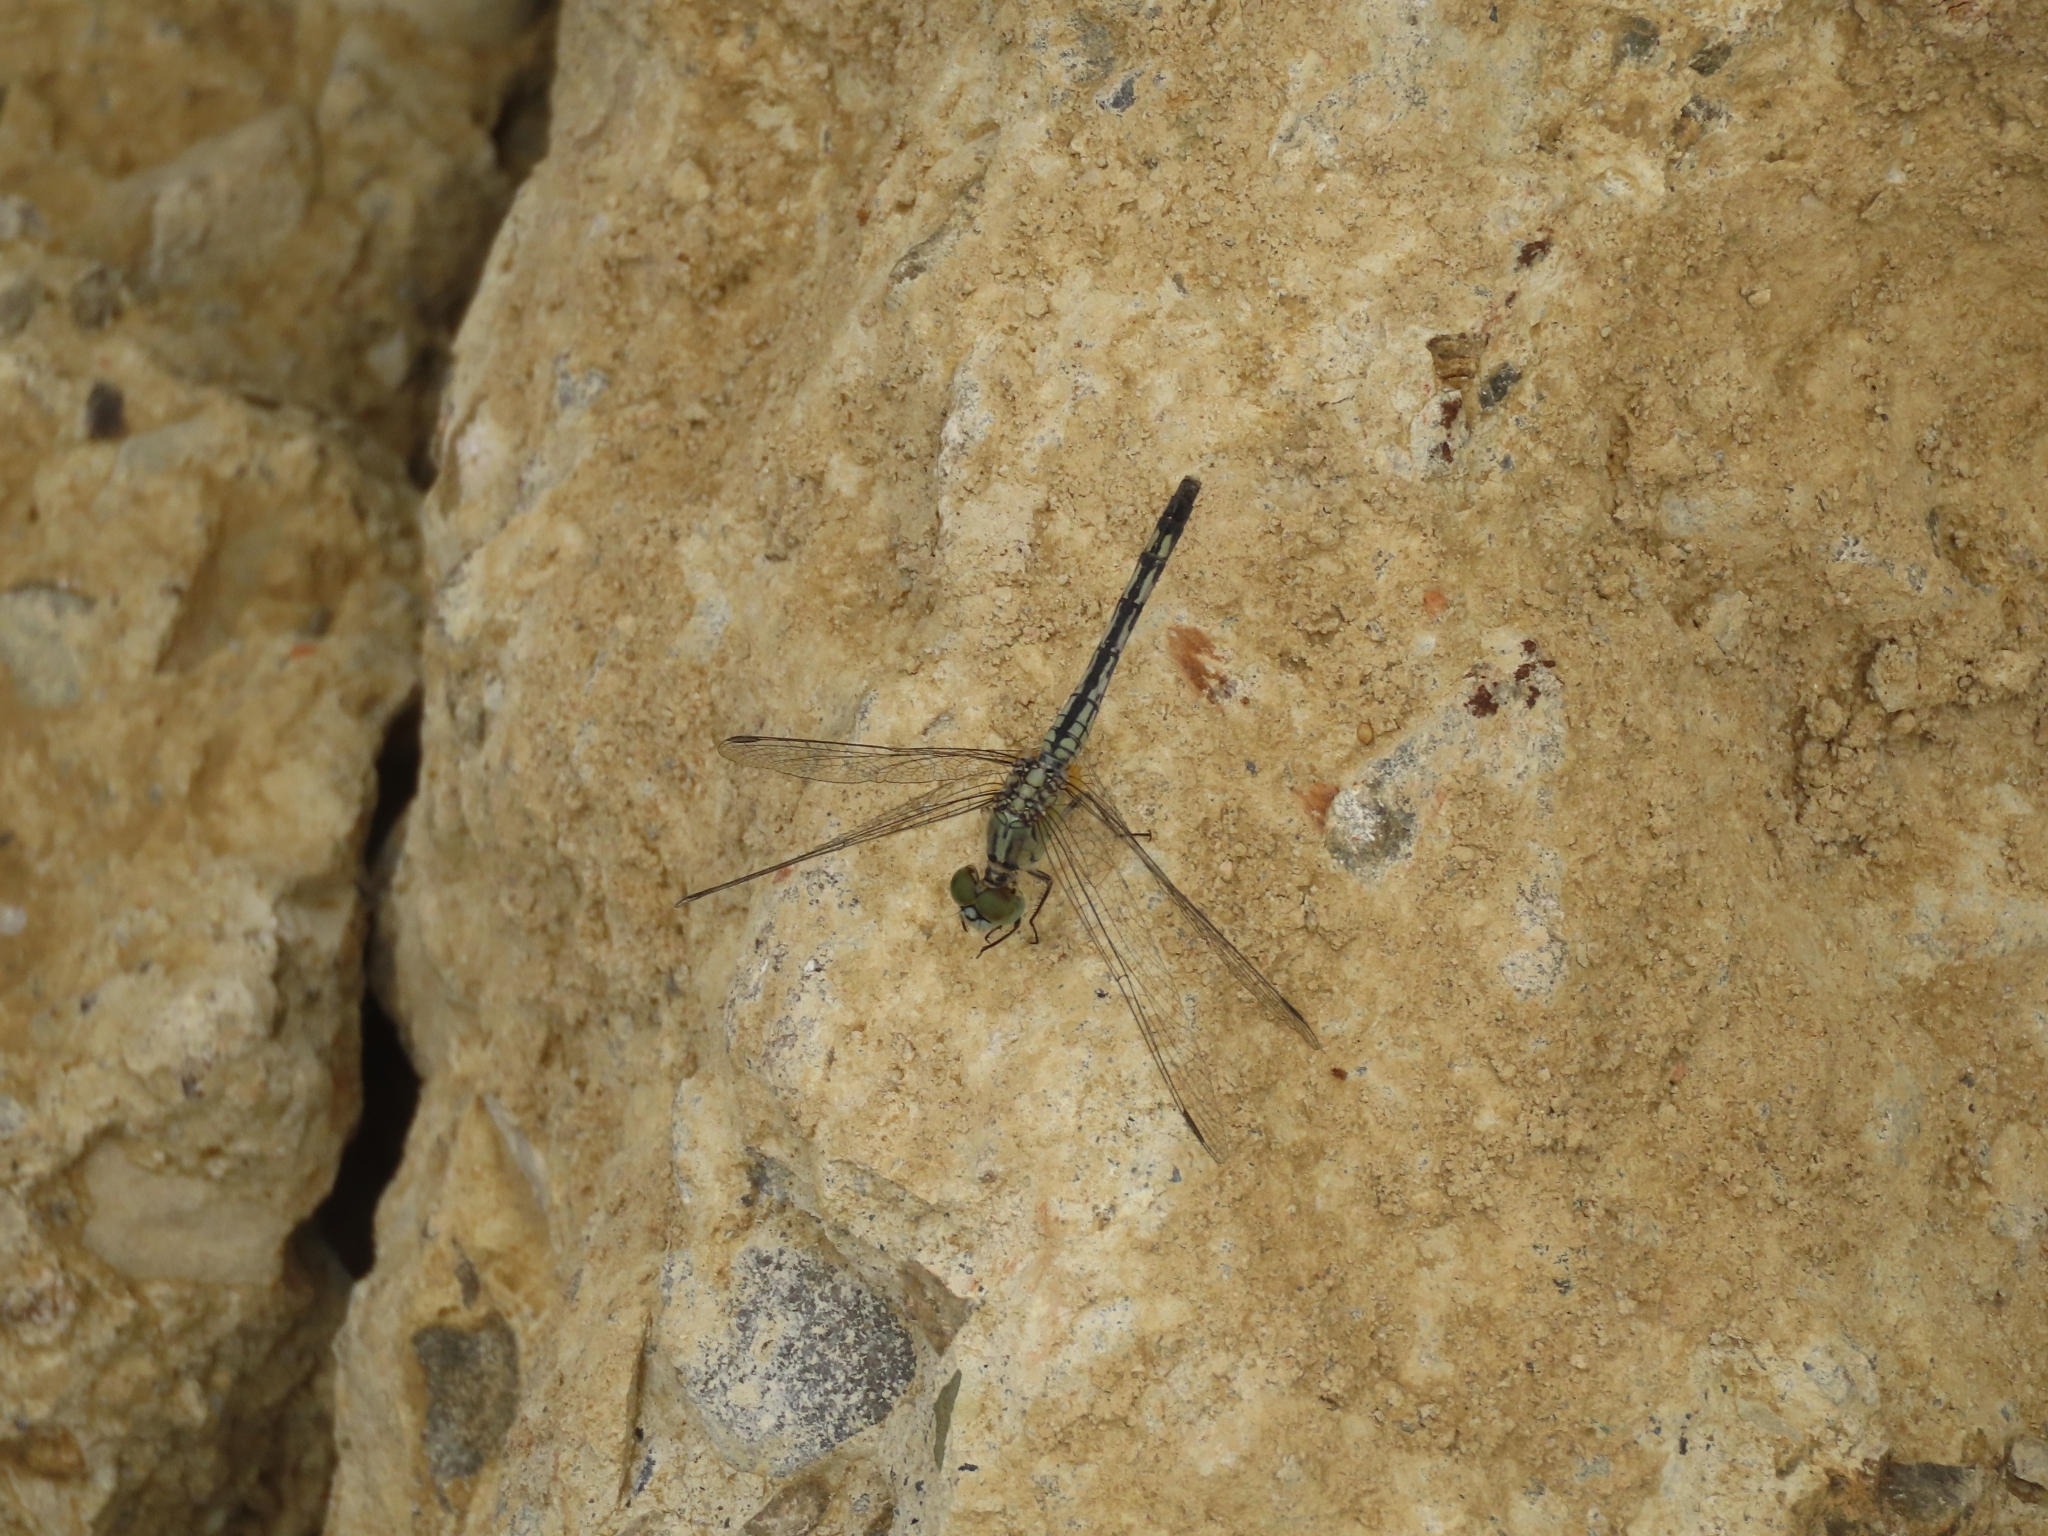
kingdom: Animalia
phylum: Arthropoda
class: Insecta
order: Odonata
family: Libellulidae
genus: Diplacodes
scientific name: Diplacodes trivialis
